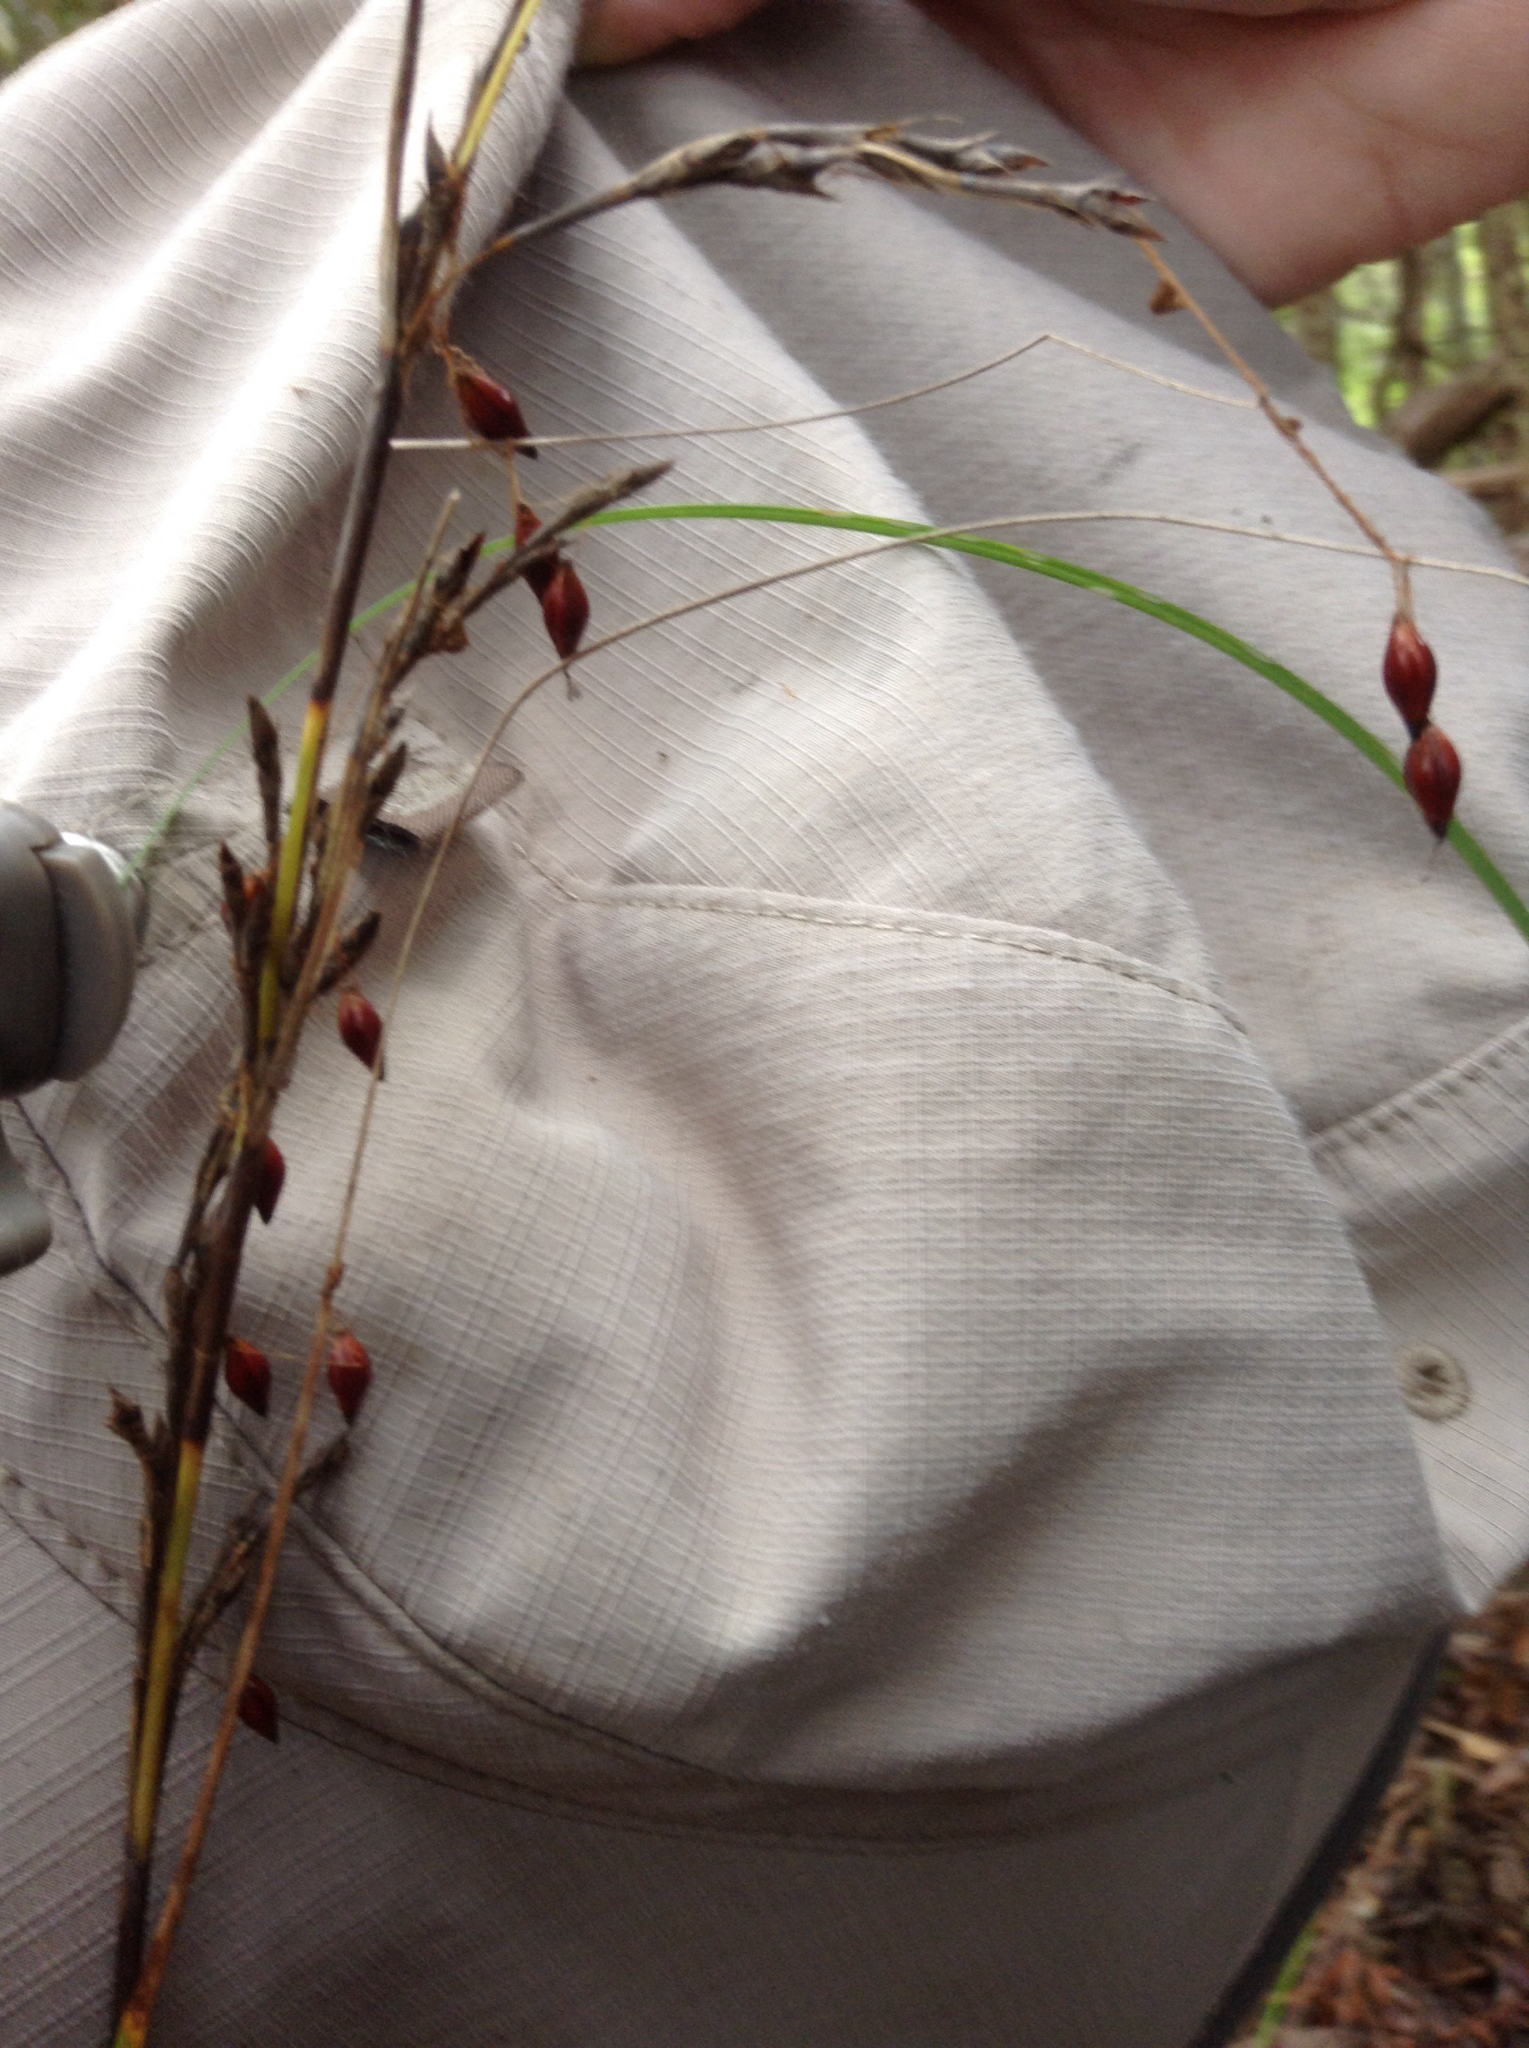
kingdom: Plantae
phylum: Tracheophyta
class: Liliopsida
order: Poales
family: Cyperaceae
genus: Gahnia
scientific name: Gahnia pauciflora
